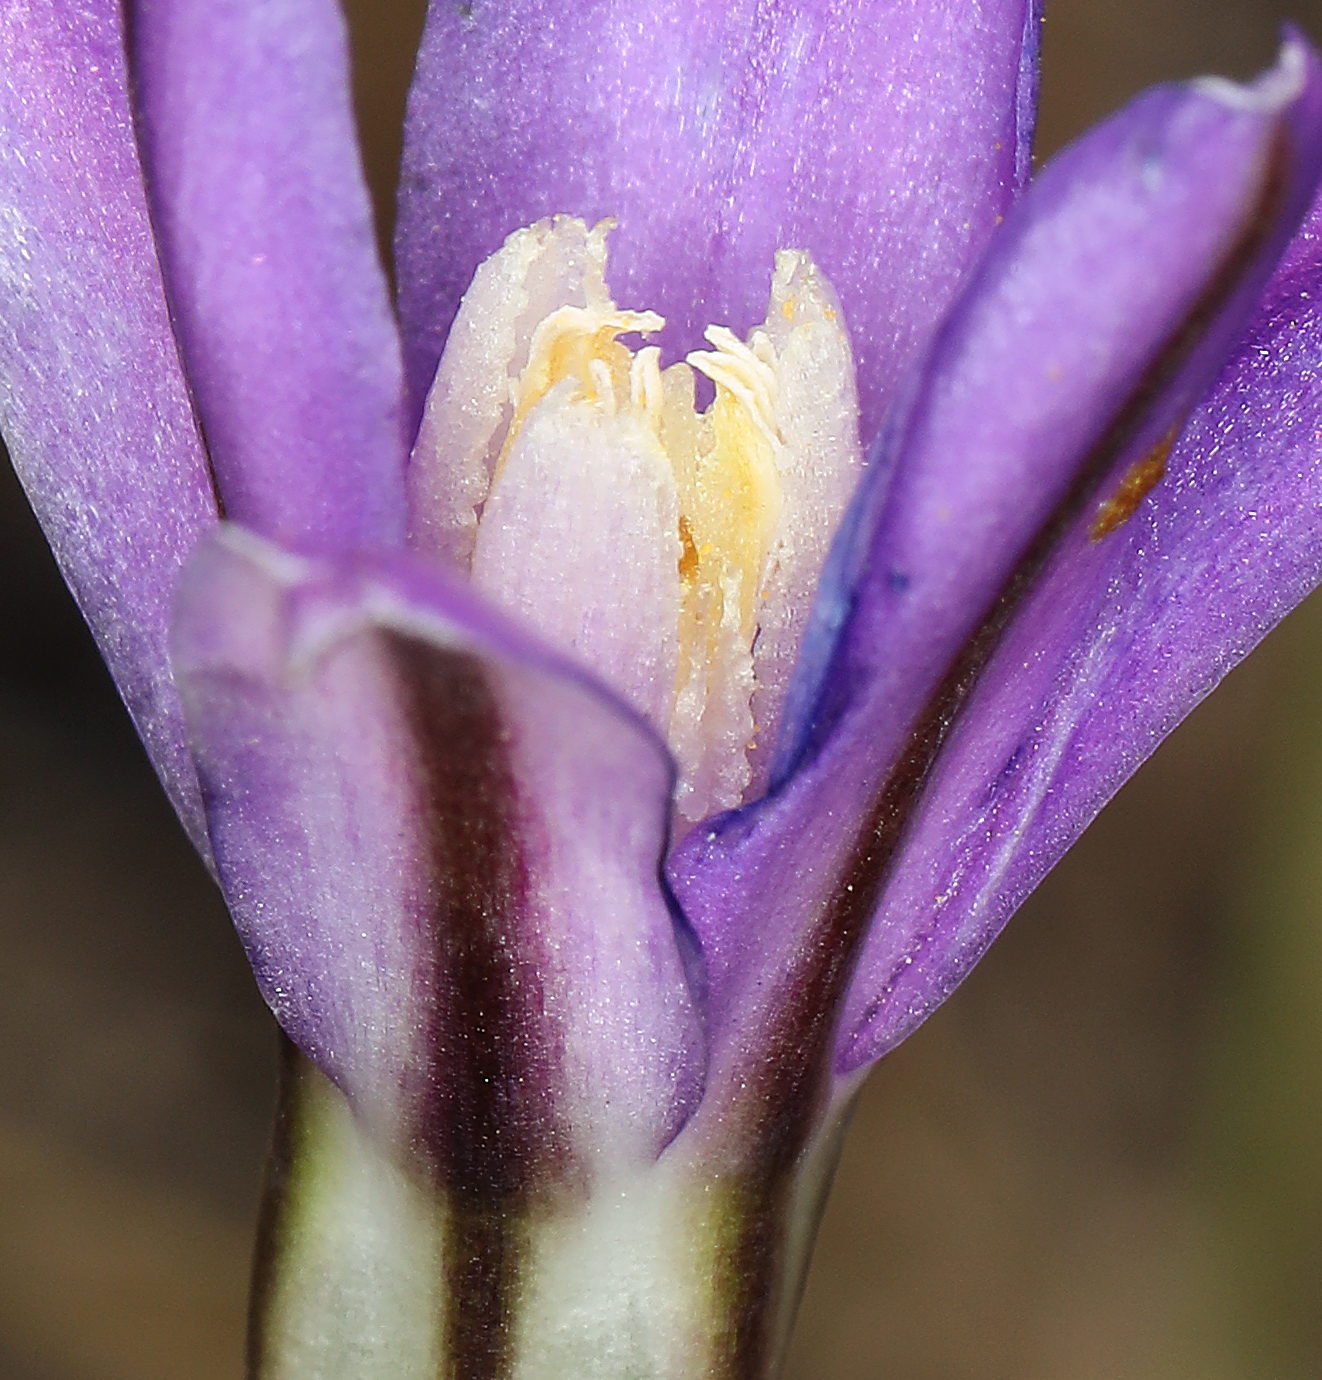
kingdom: Plantae
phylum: Tracheophyta
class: Liliopsida
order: Asparagales
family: Asparagaceae
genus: Brodiaea
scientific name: Brodiaea appendiculata
